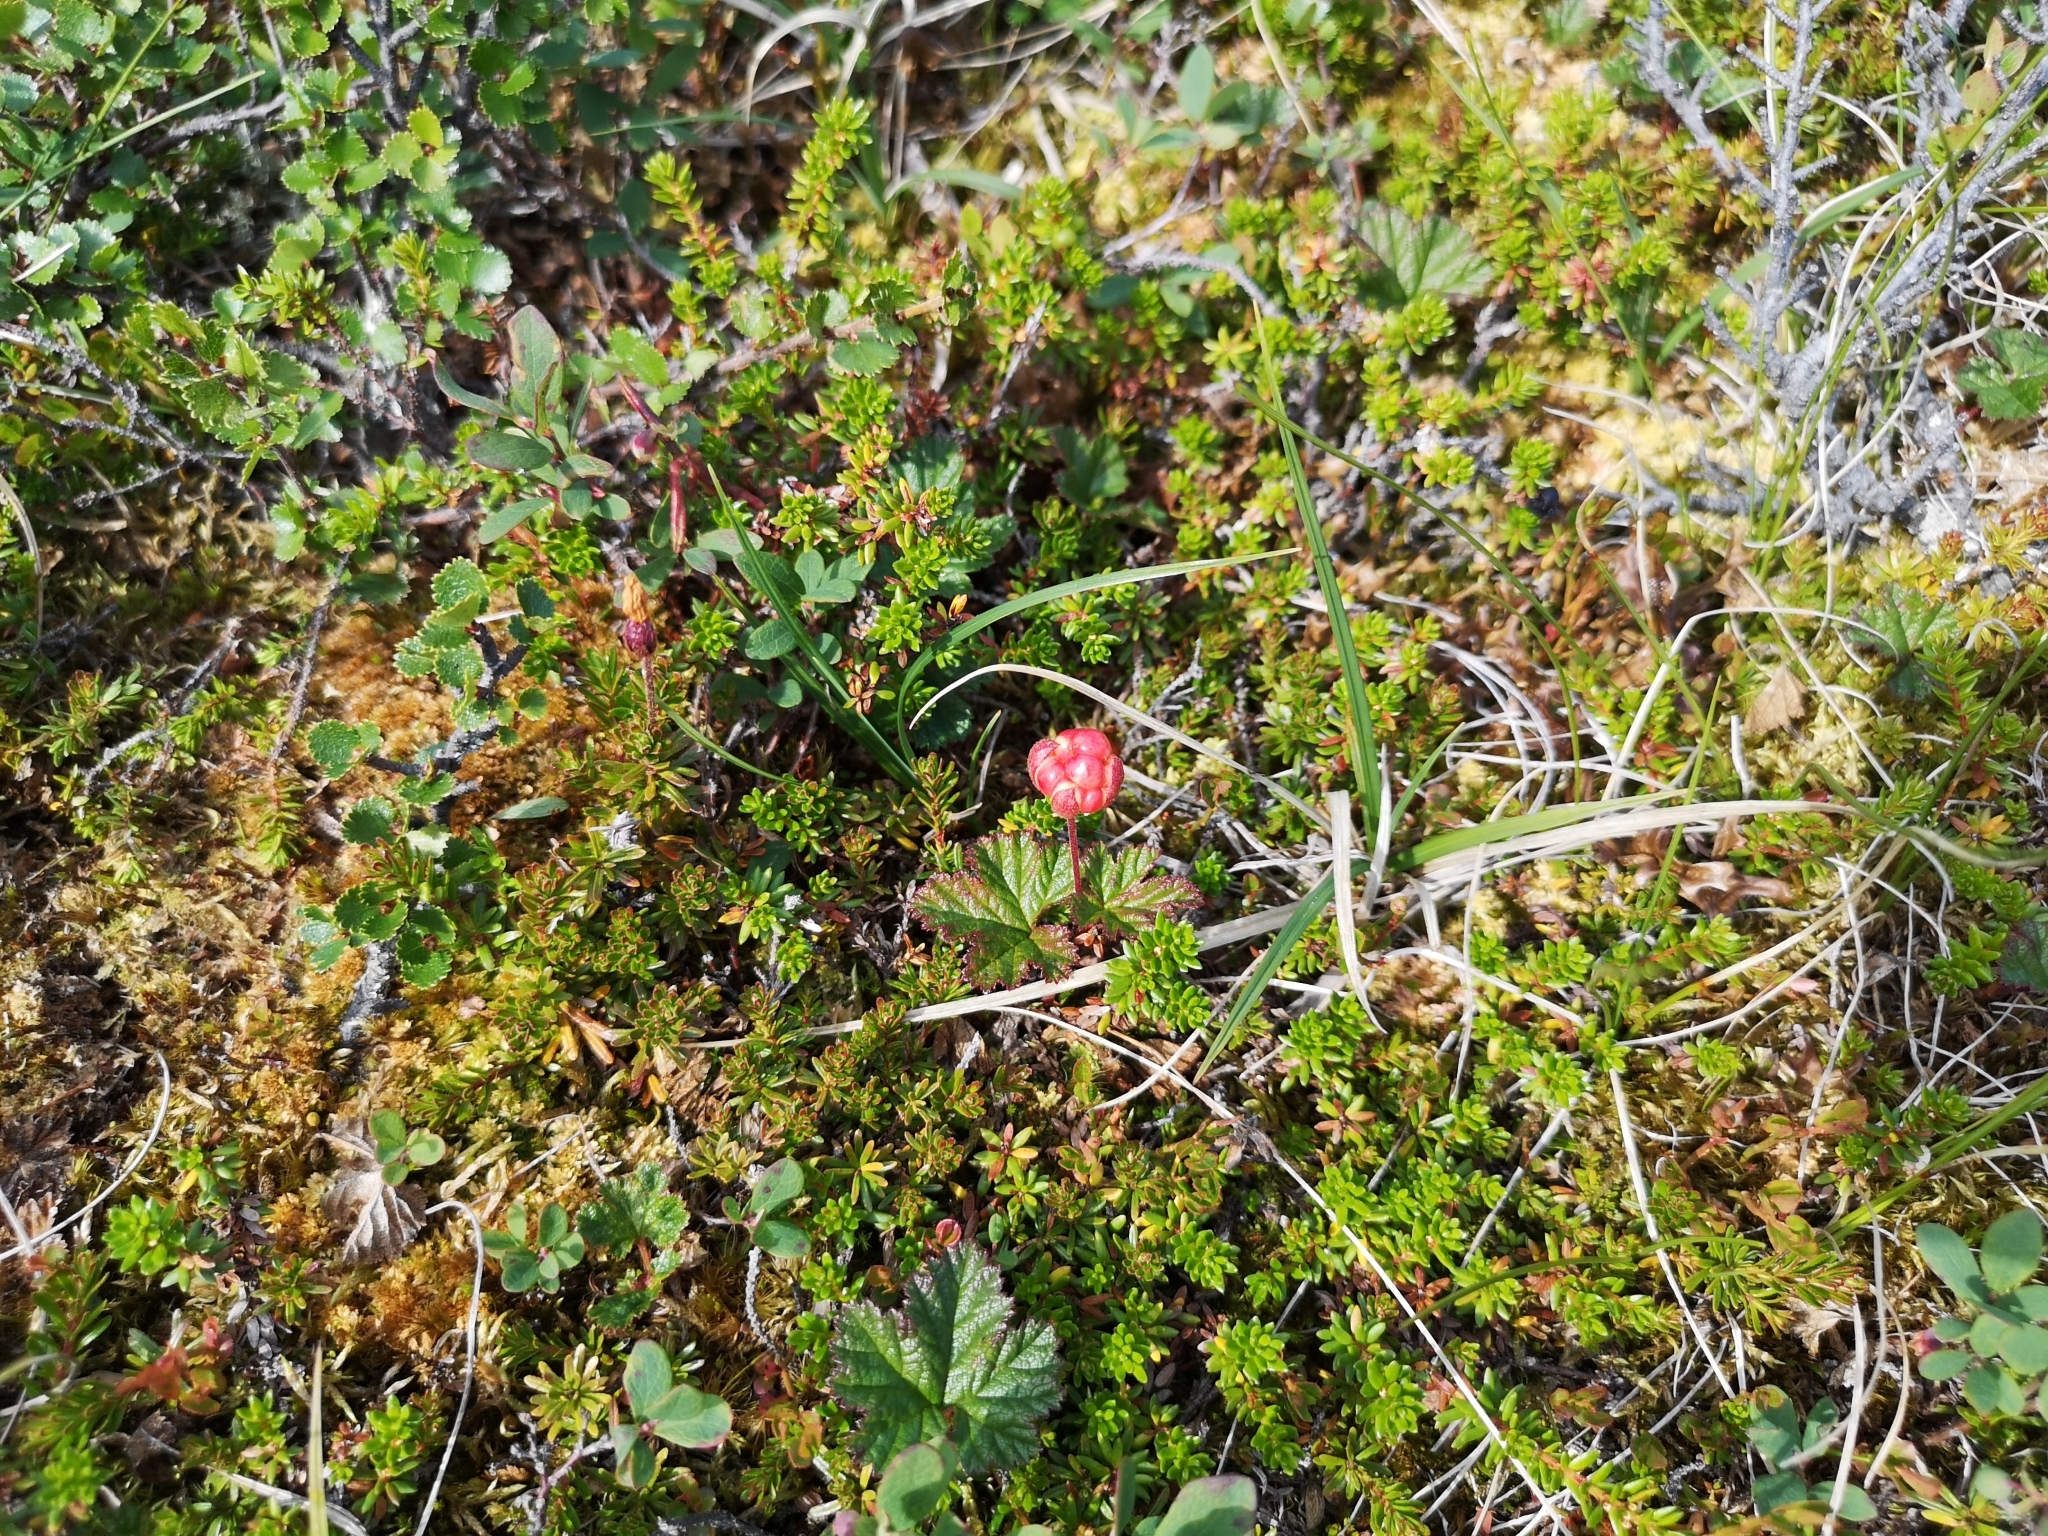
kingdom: Plantae
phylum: Tracheophyta
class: Magnoliopsida
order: Rosales
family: Rosaceae
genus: Rubus
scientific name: Rubus chamaemorus
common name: Cloudberry
